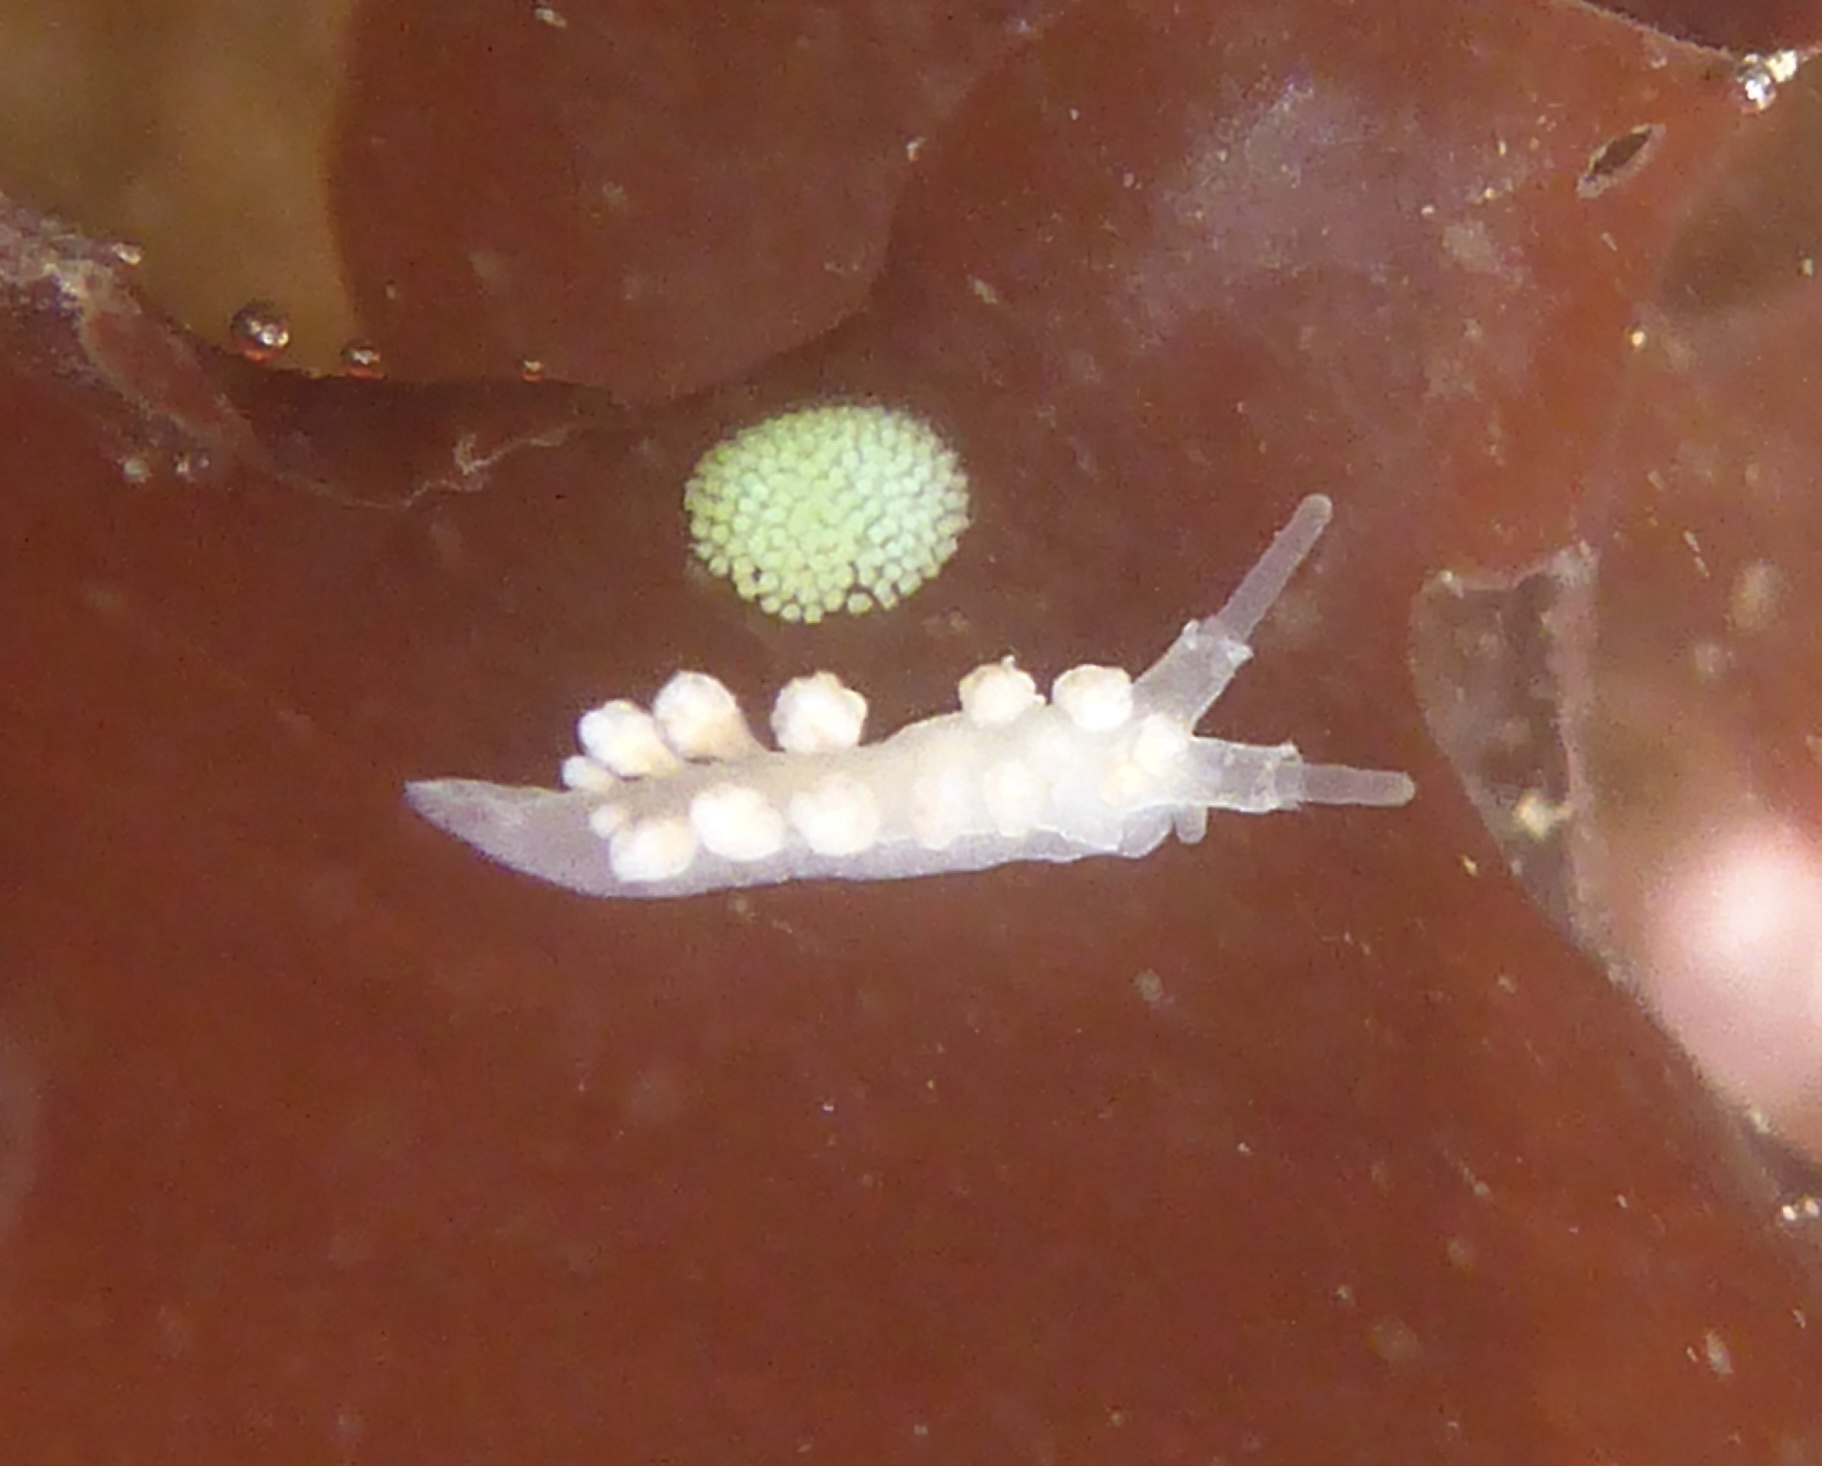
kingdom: Animalia
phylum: Mollusca
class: Gastropoda
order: Nudibranchia
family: Dotidae
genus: Doto
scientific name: Doto amyra
